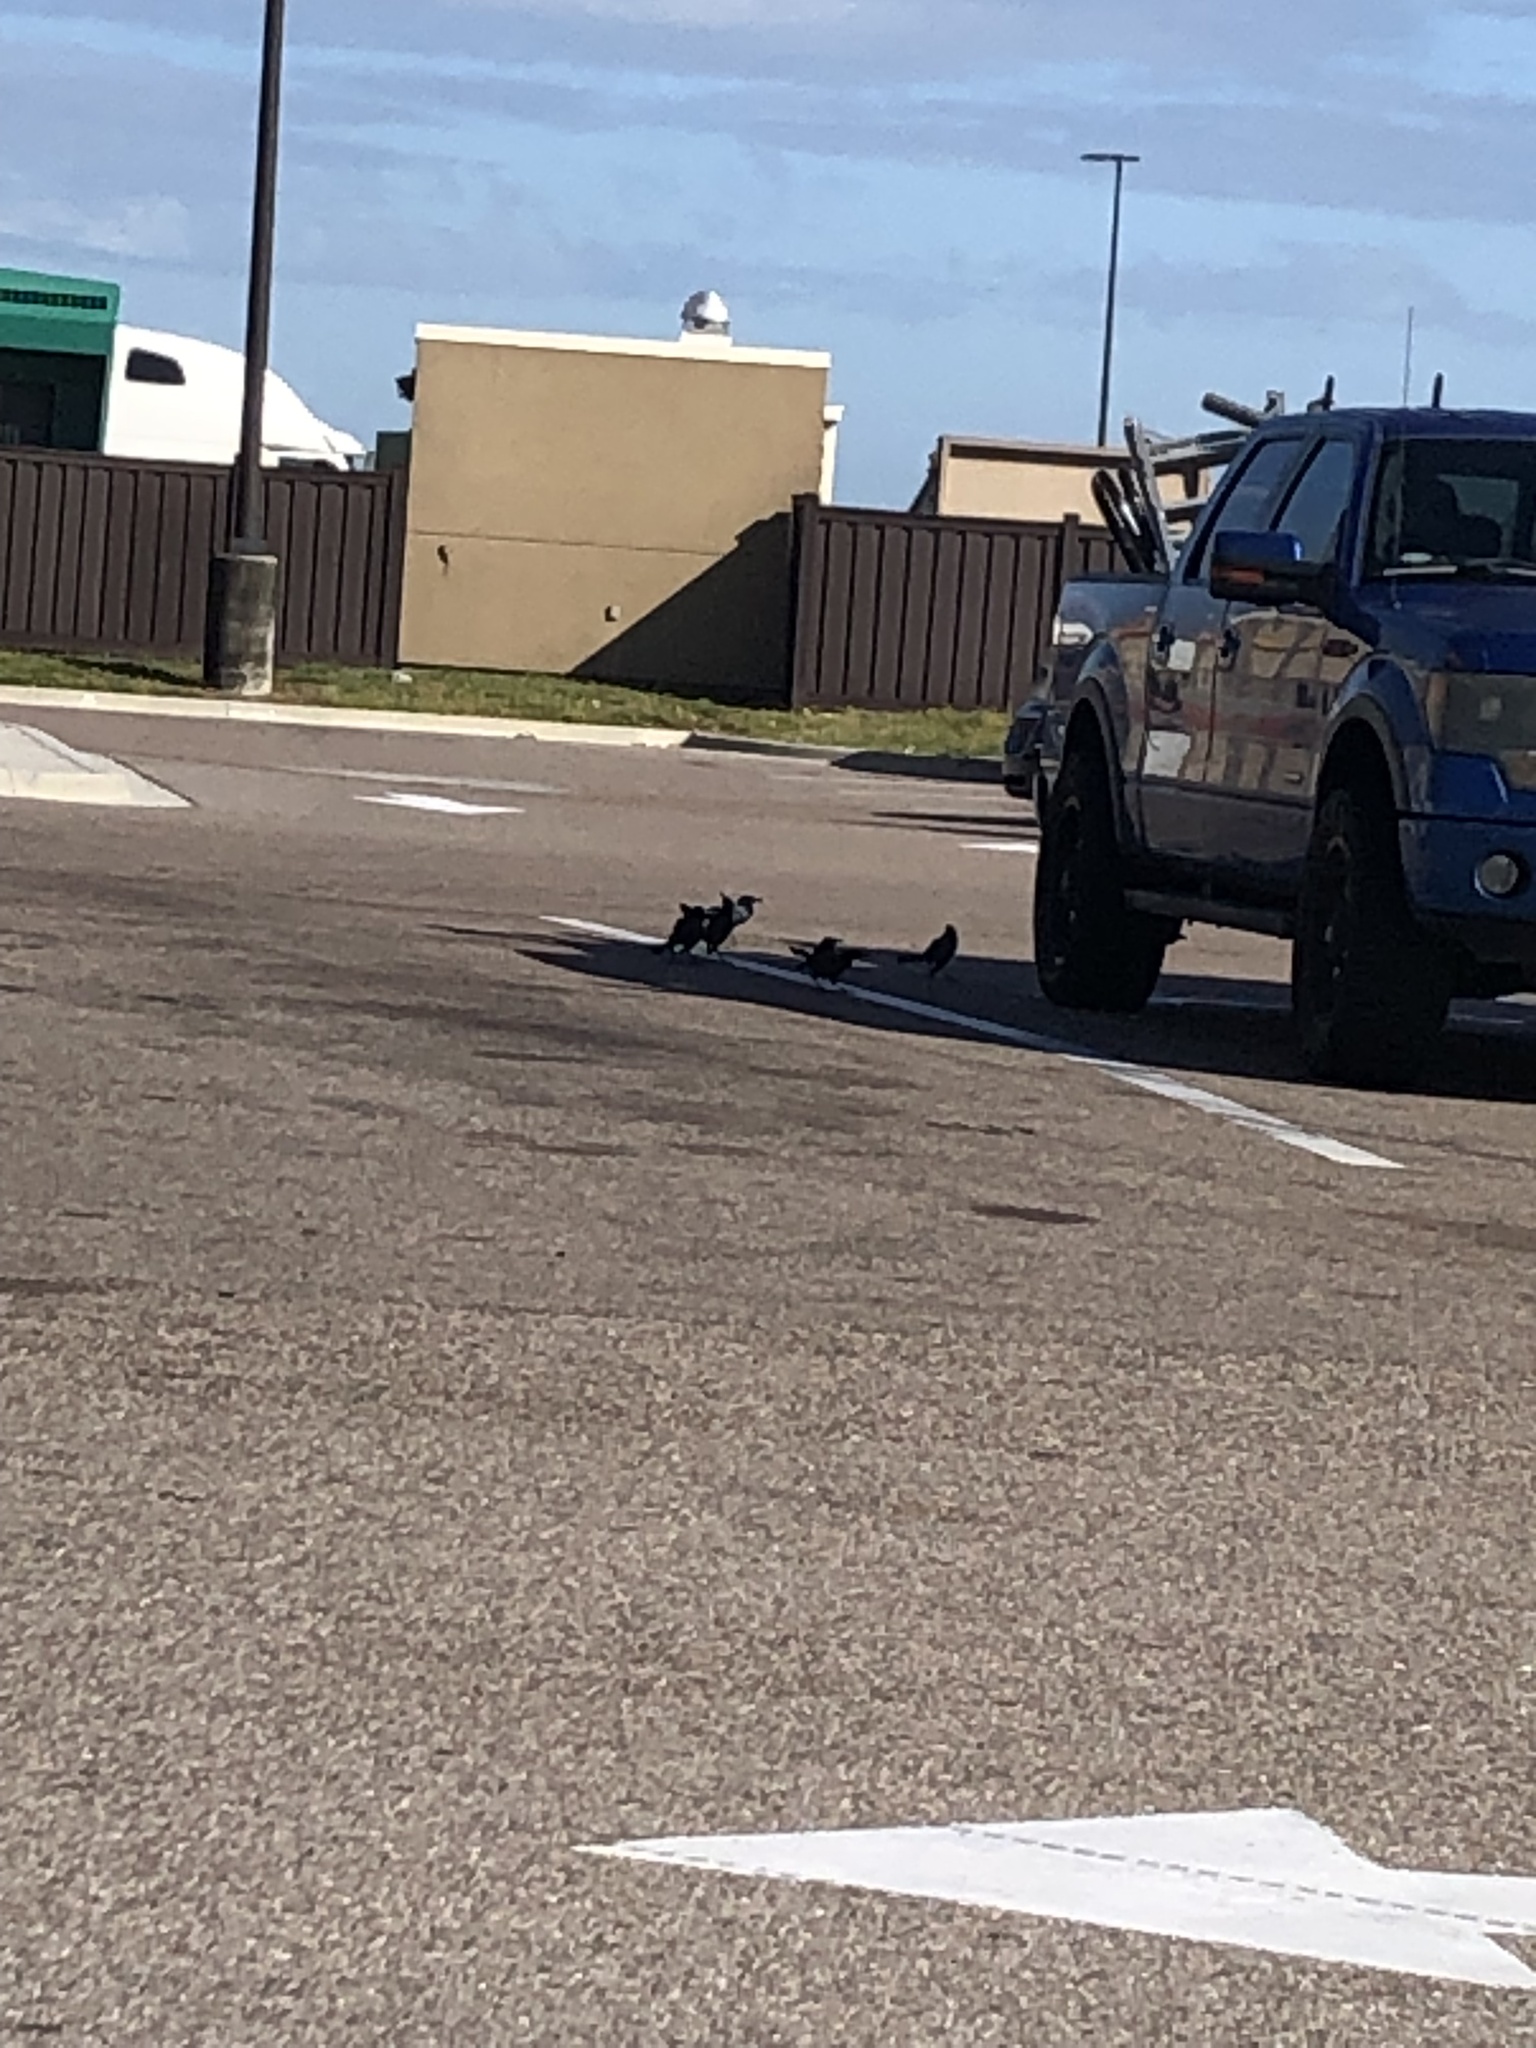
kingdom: Animalia
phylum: Chordata
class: Aves
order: Passeriformes
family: Icteridae
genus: Quiscalus
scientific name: Quiscalus major
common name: Boat-tailed grackle
